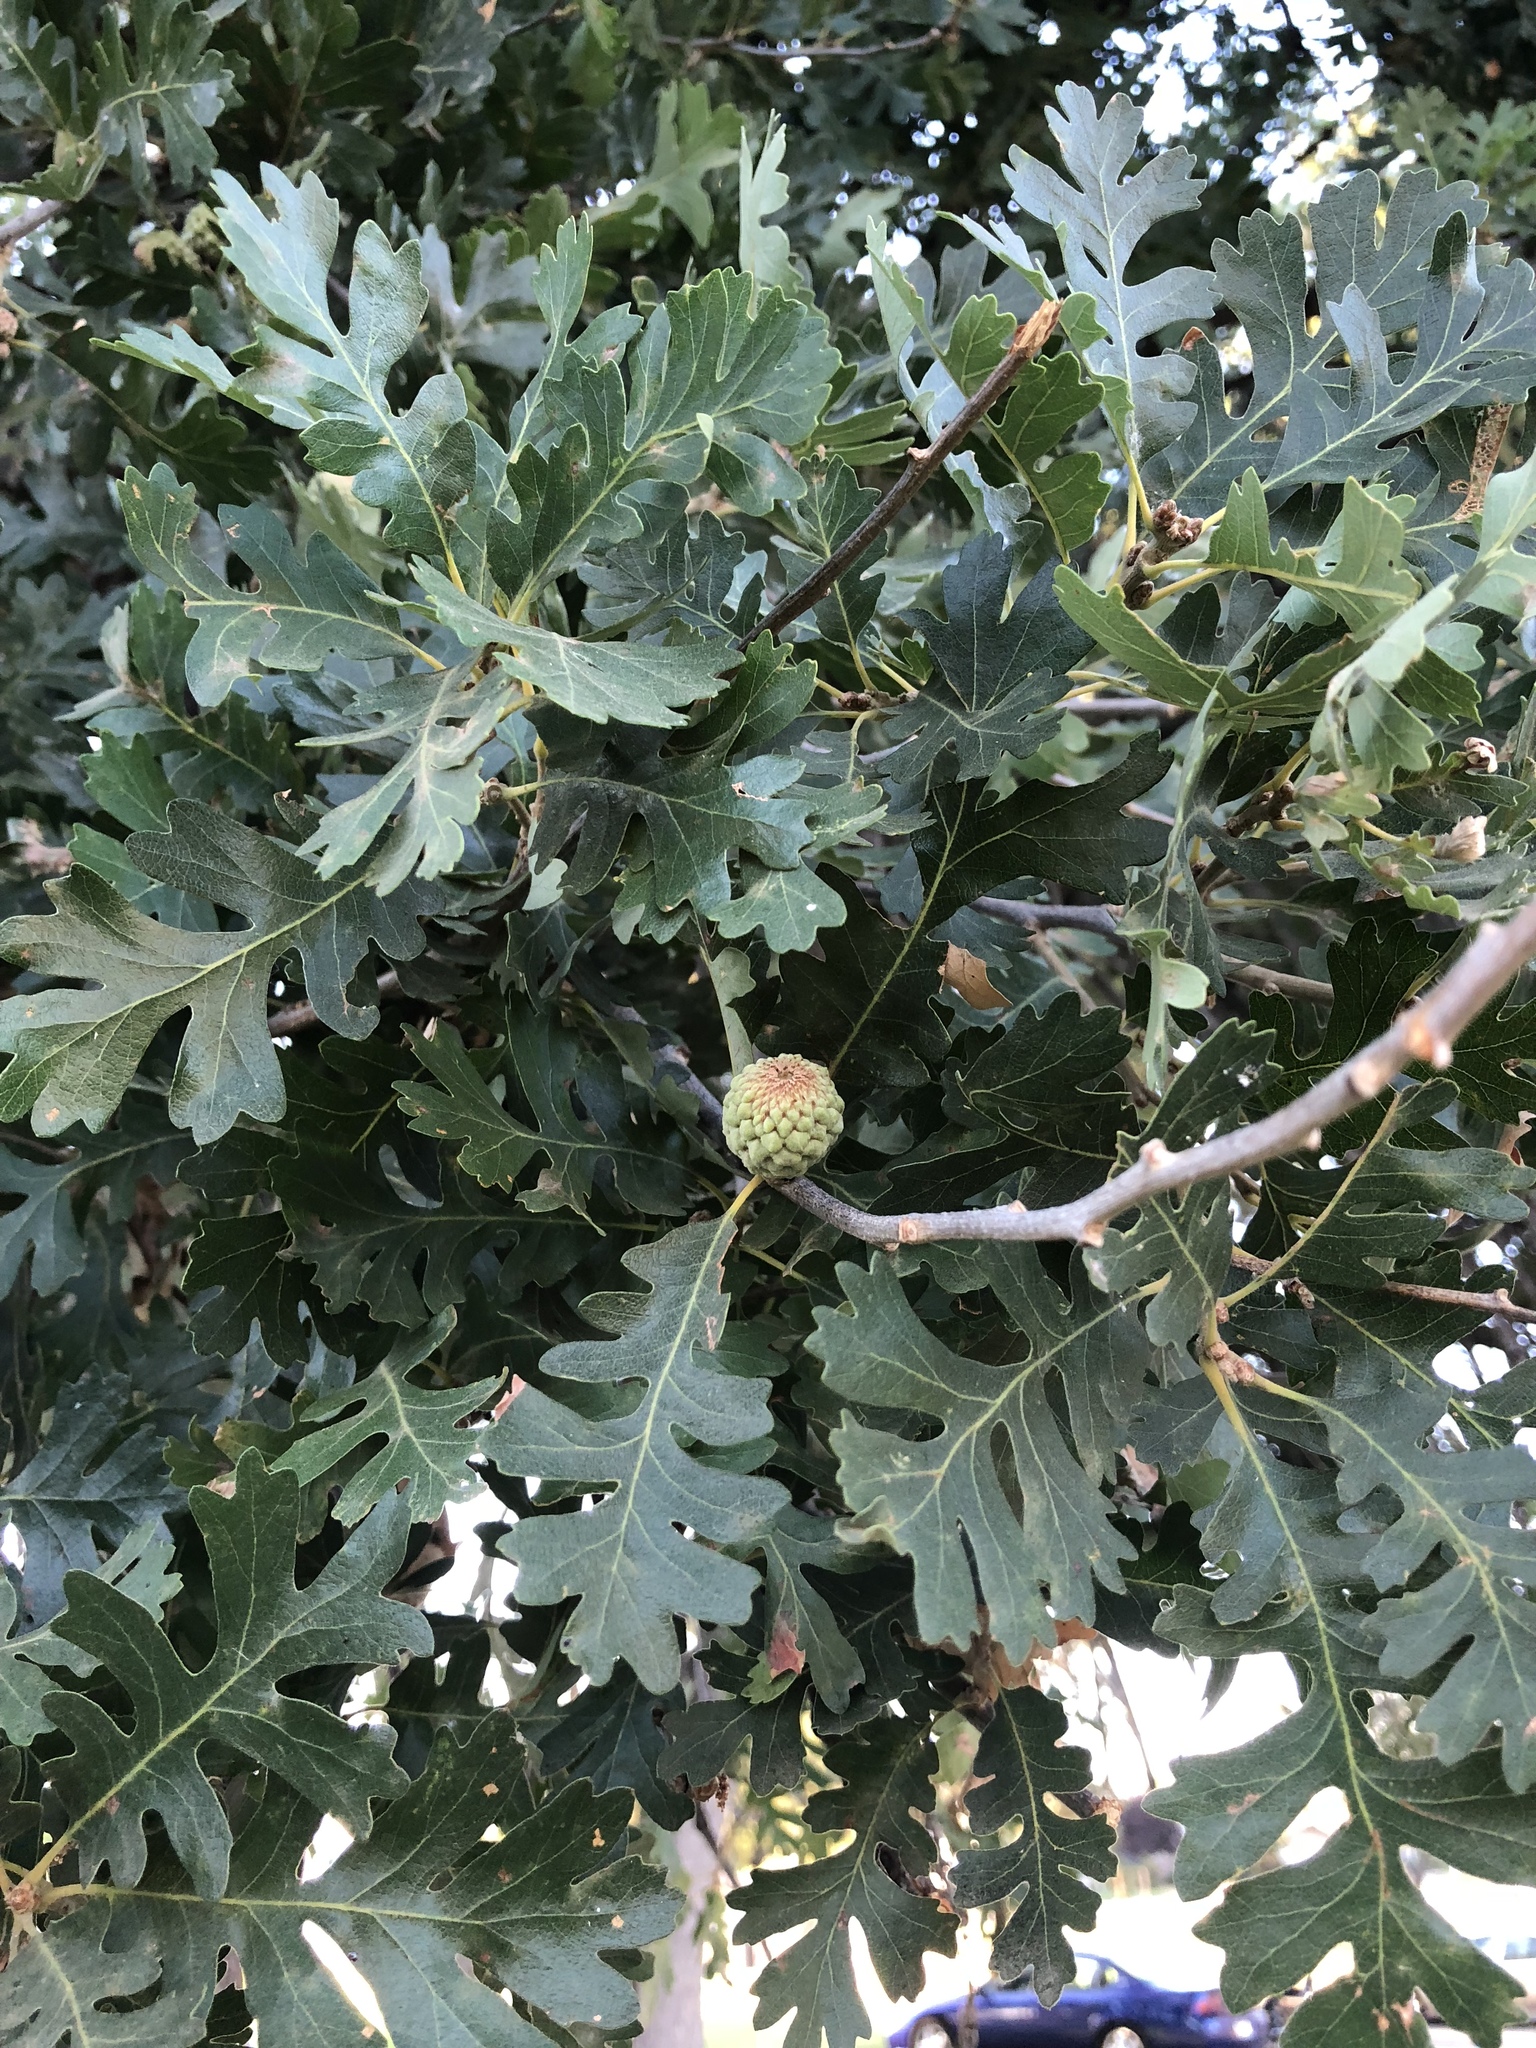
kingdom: Plantae
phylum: Tracheophyta
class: Magnoliopsida
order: Fagales
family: Fagaceae
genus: Quercus
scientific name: Quercus lobata
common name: Valley oak
